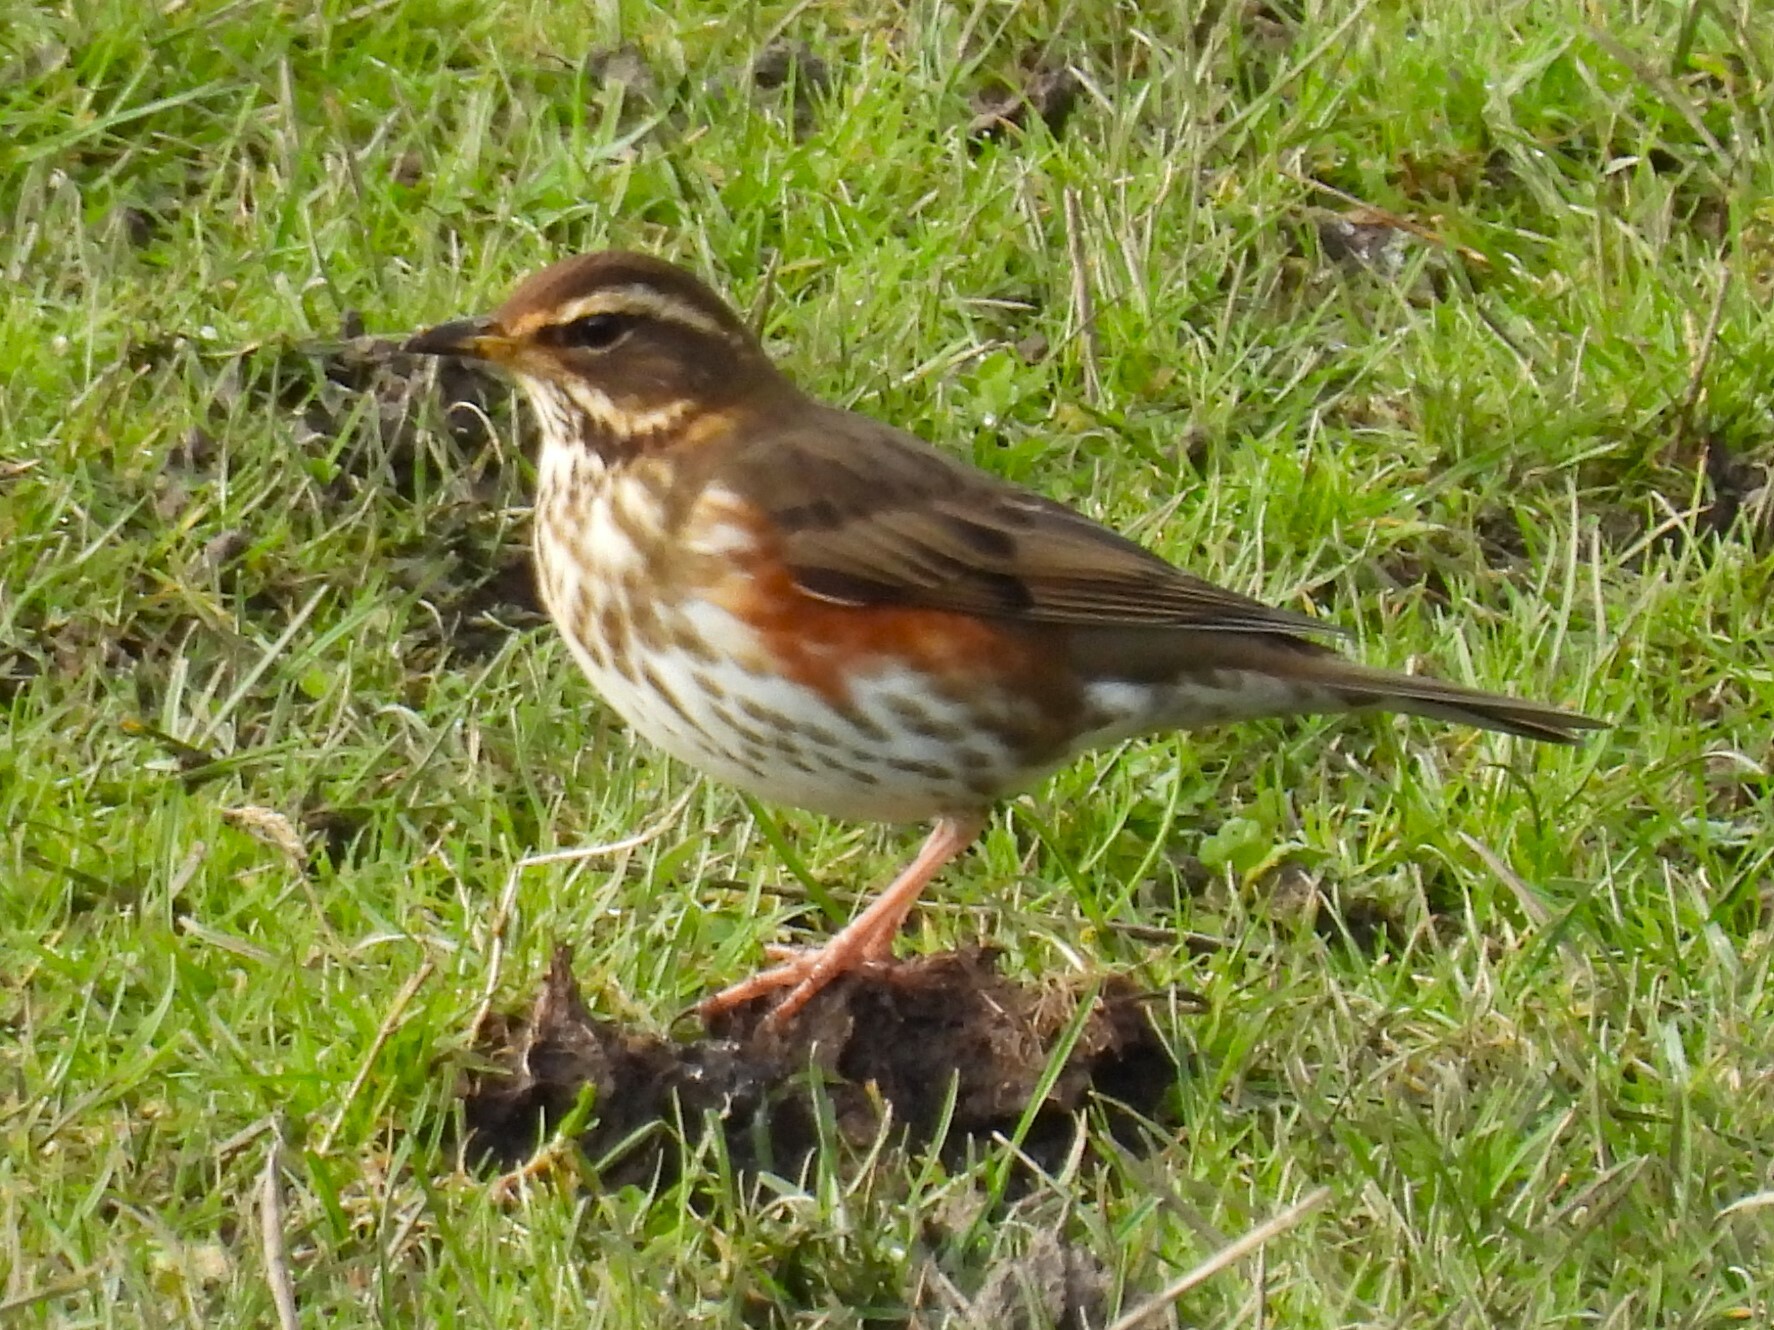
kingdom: Animalia
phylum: Chordata
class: Aves
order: Passeriformes
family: Turdidae
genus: Turdus
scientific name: Turdus iliacus
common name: Redwing
